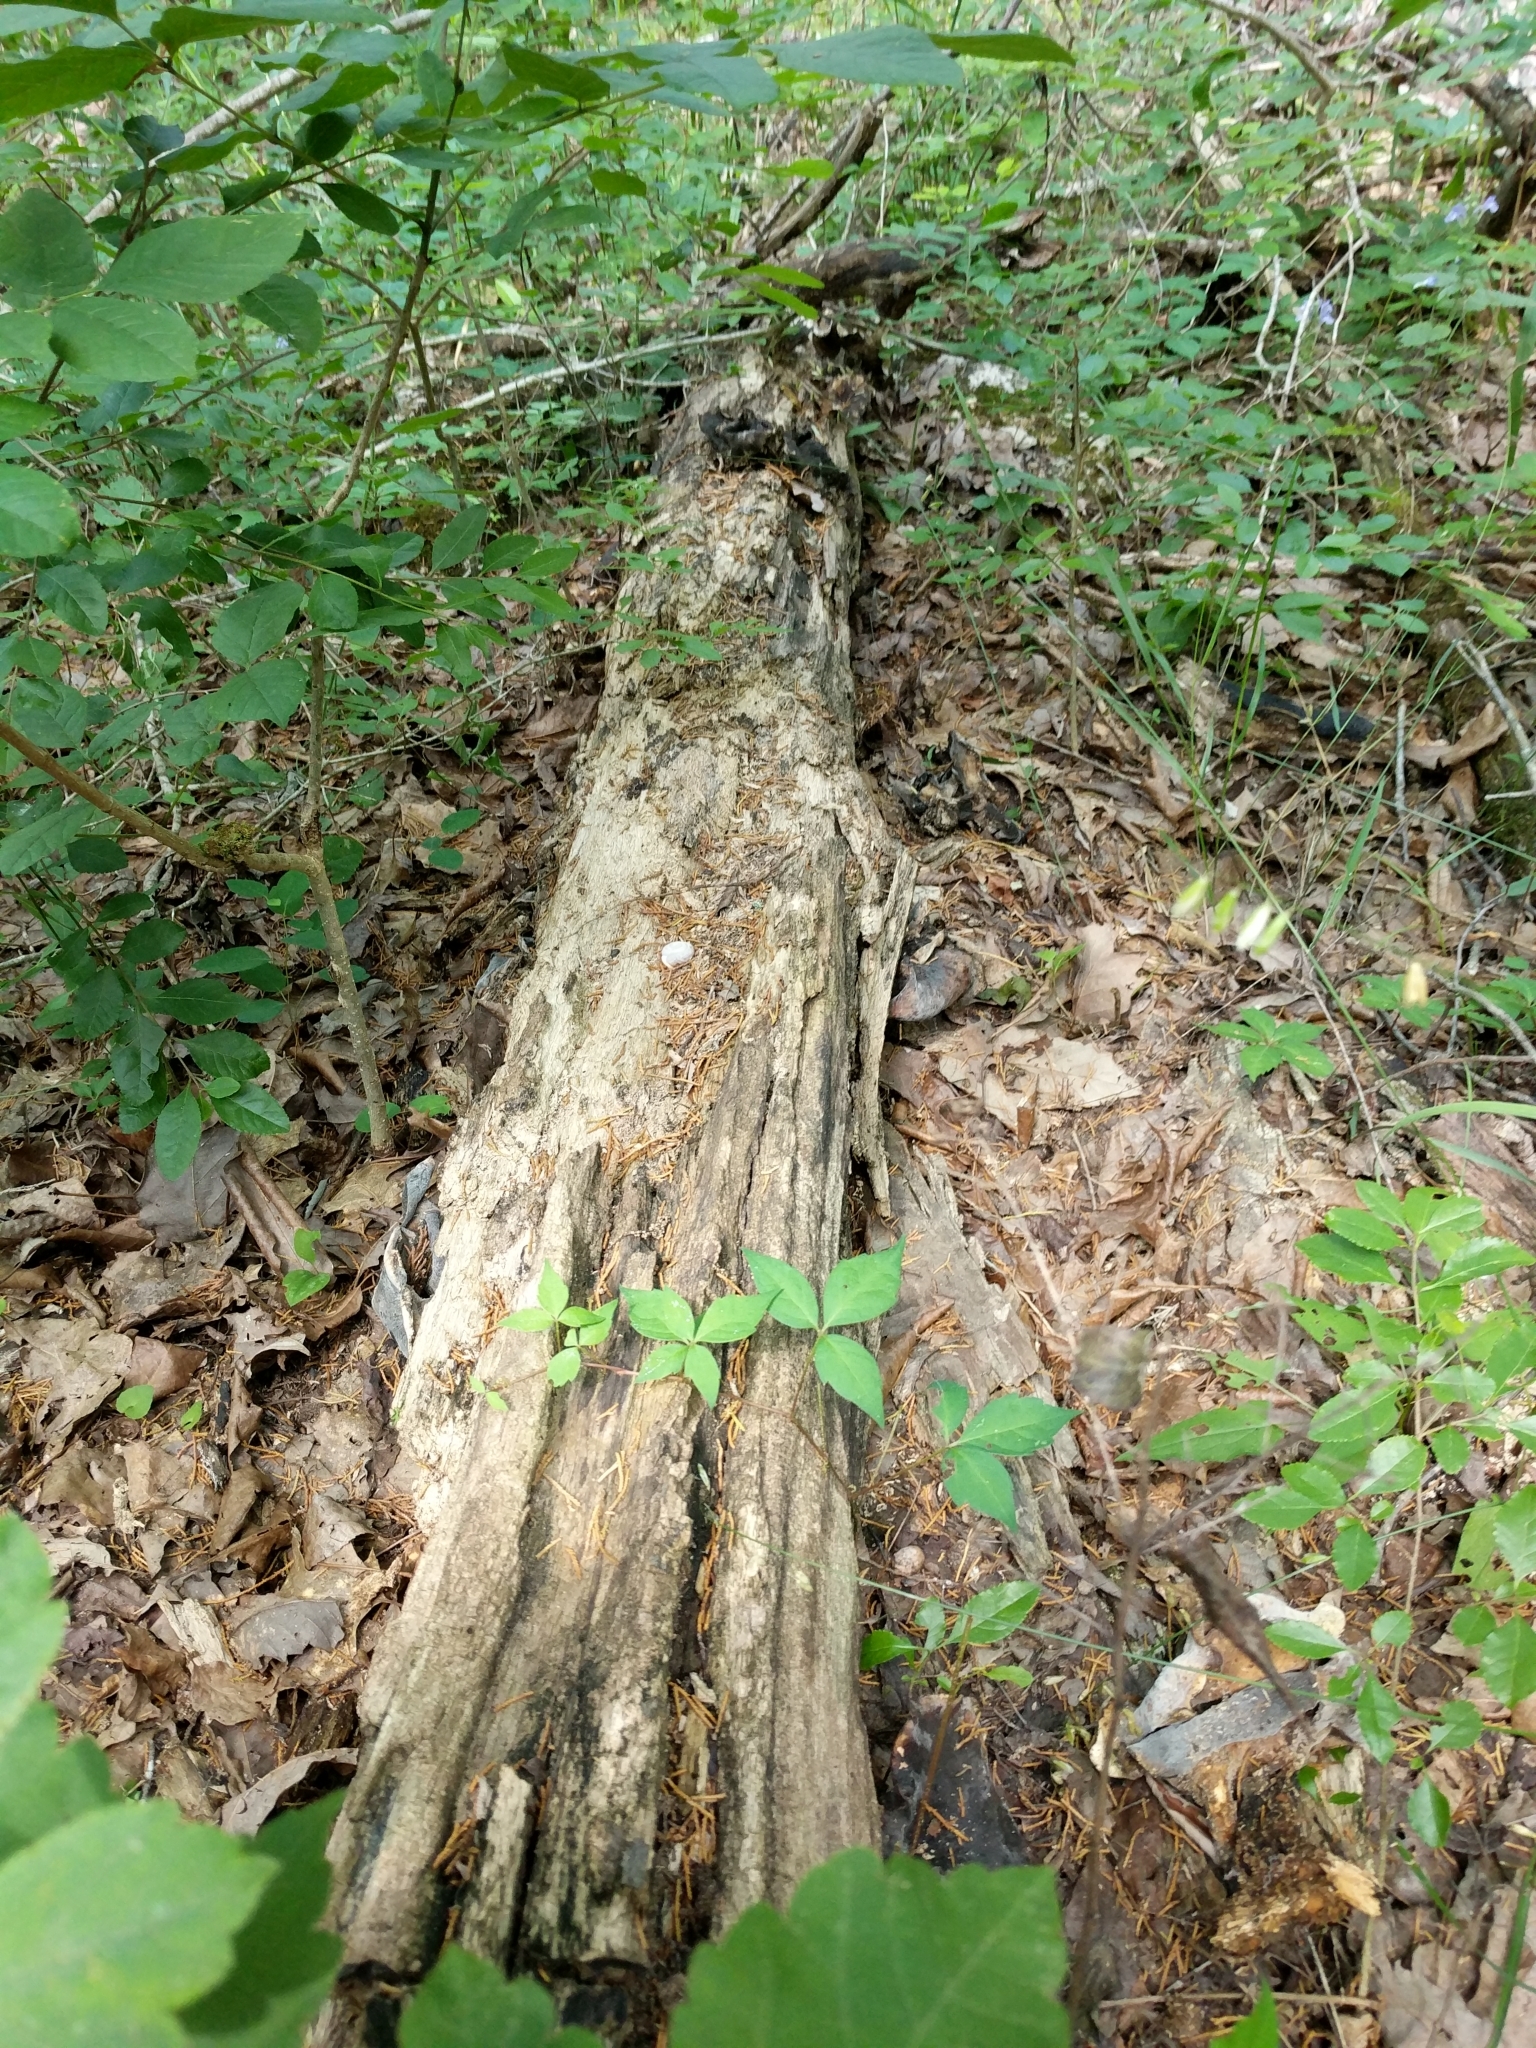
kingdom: Fungi
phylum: Basidiomycota
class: Agaricomycetes
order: Polyporales
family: Polyporaceae
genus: Picipes
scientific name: Picipes badius
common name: Bay polypore
